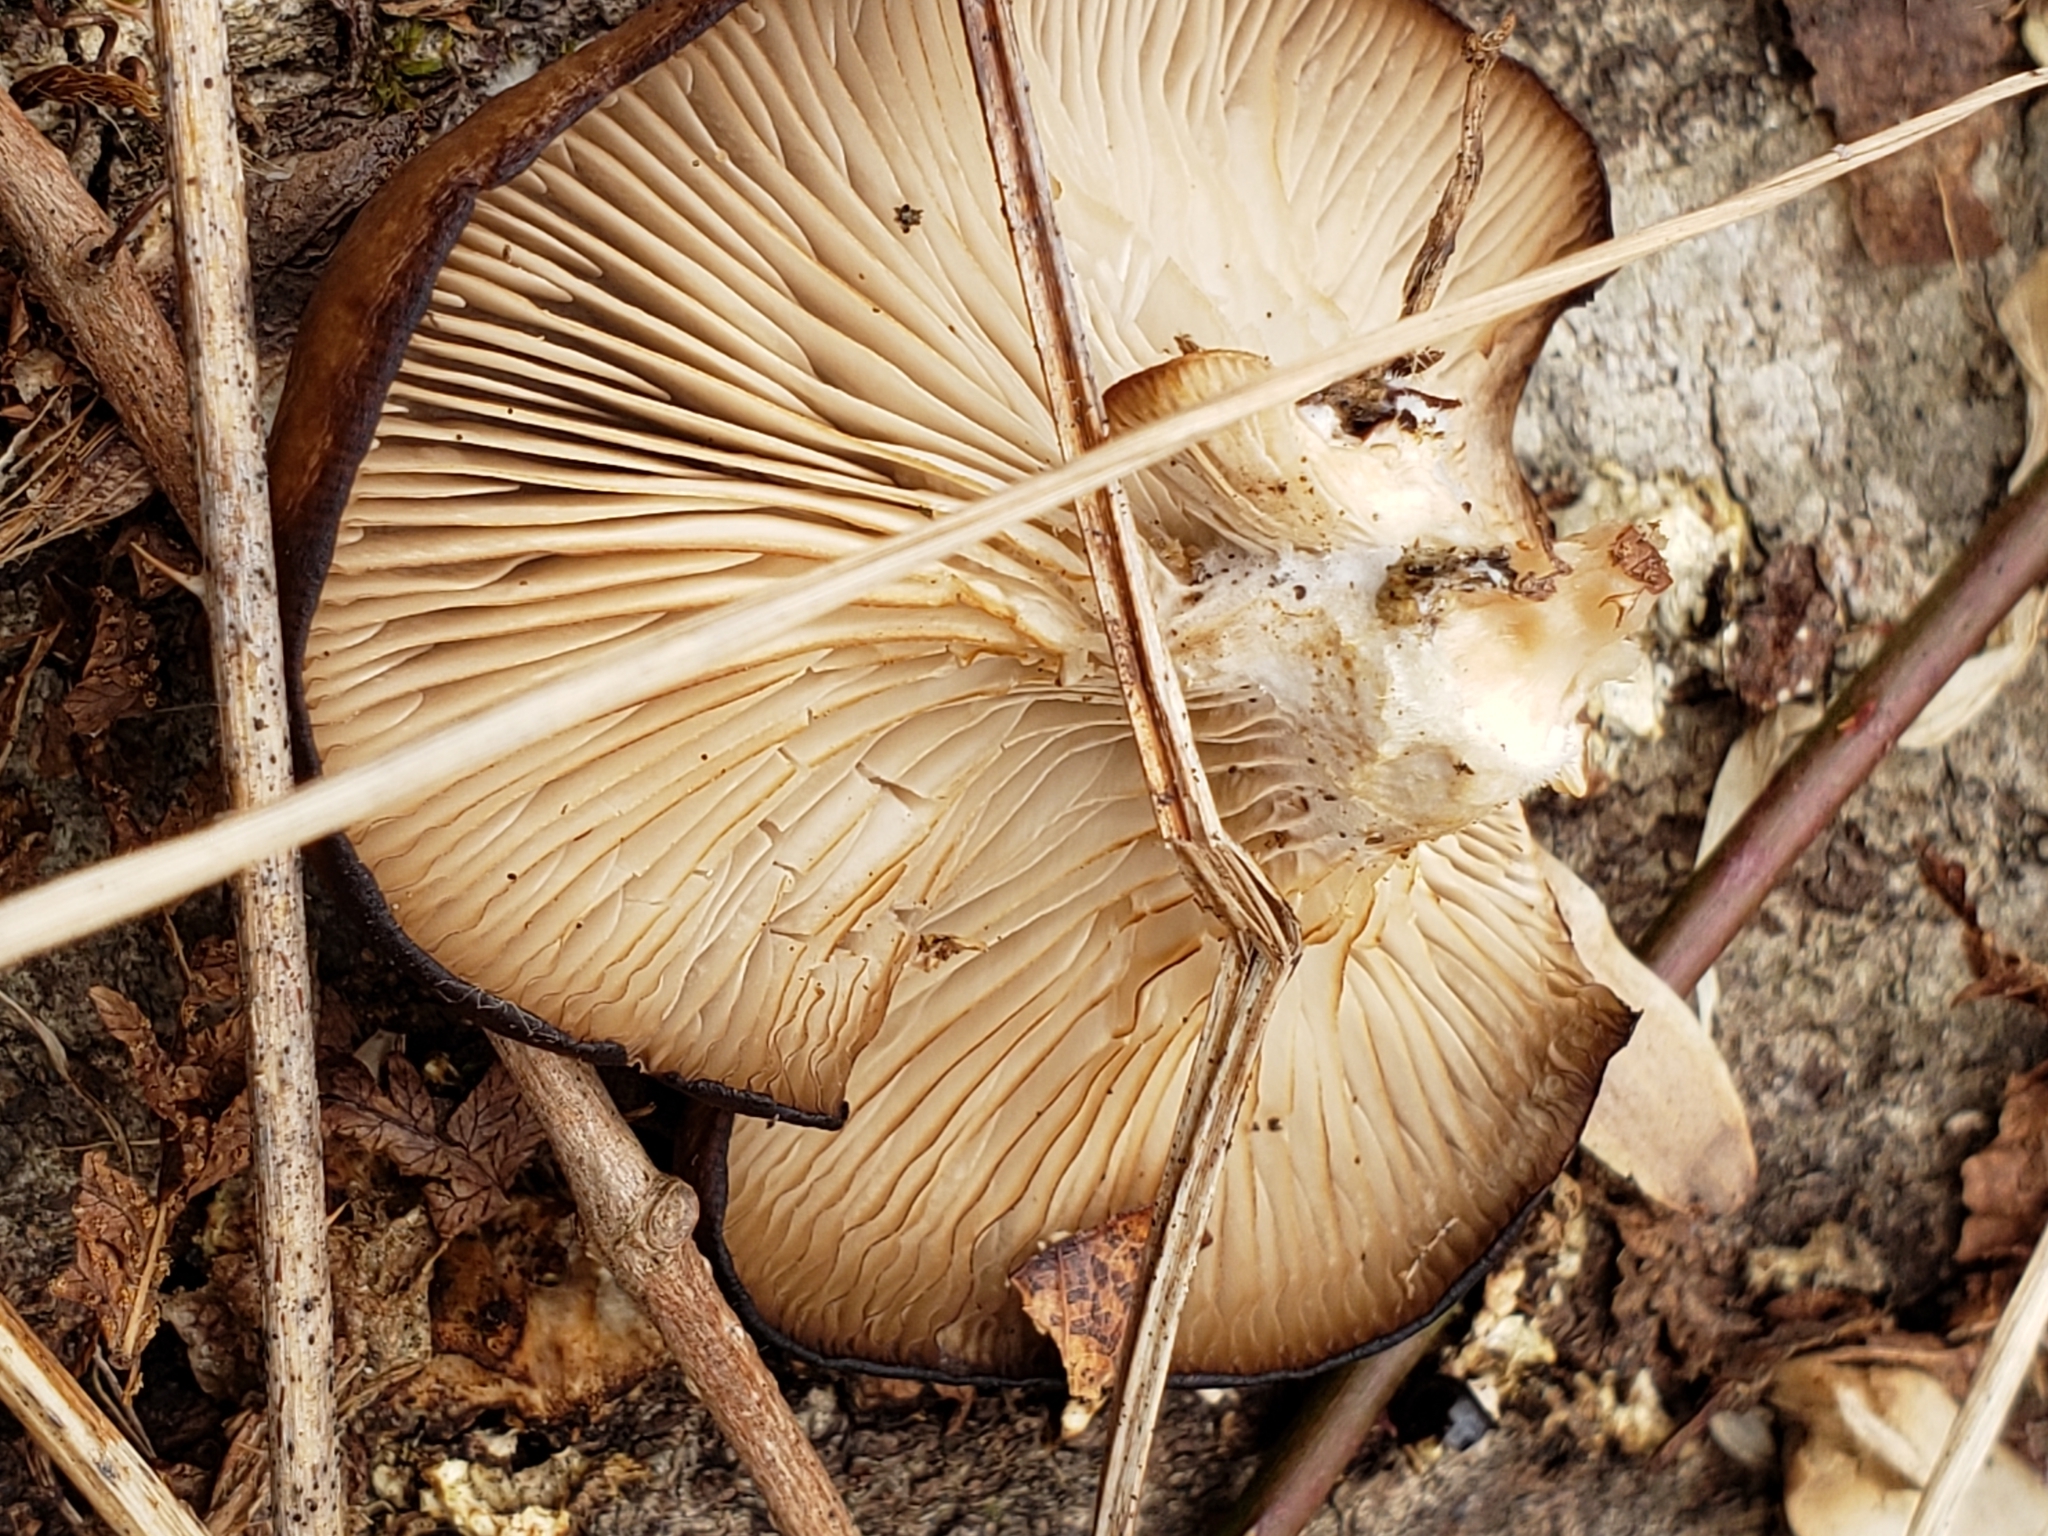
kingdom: Fungi
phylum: Basidiomycota
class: Agaricomycetes
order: Agaricales
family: Sarcomyxaceae
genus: Sarcomyxa
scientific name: Sarcomyxa serotina
